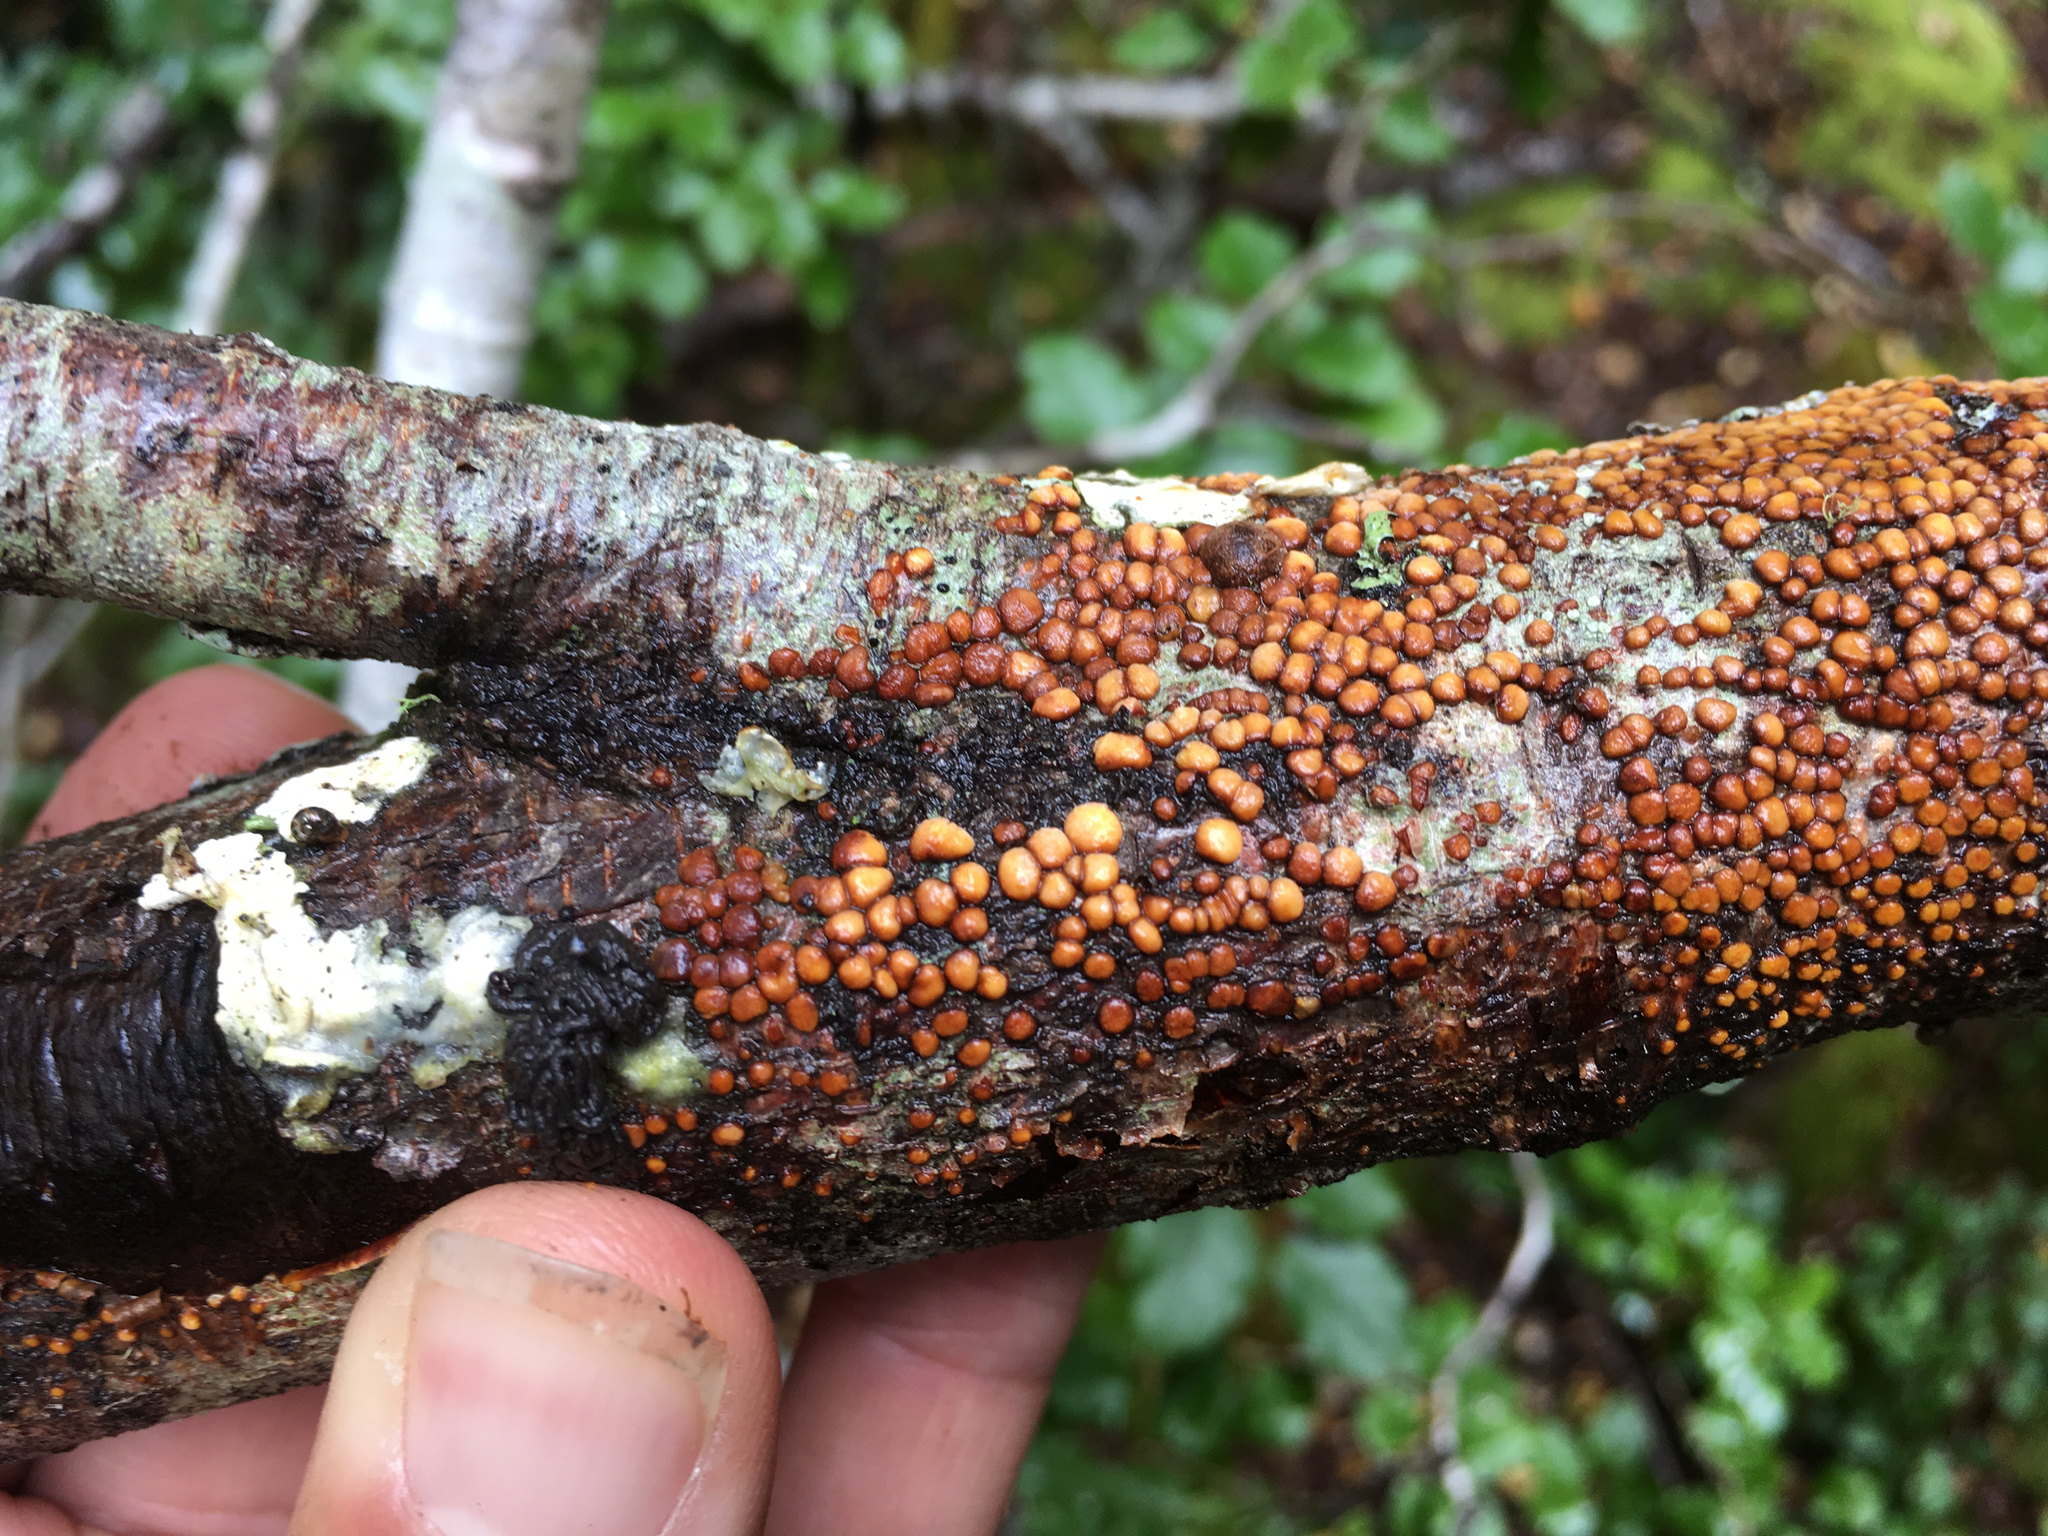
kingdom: Fungi
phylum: Basidiomycota
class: Agaricomycetes
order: Russulales
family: Stereaceae
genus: Aleurodiscus
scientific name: Aleurodiscus berggrenii
